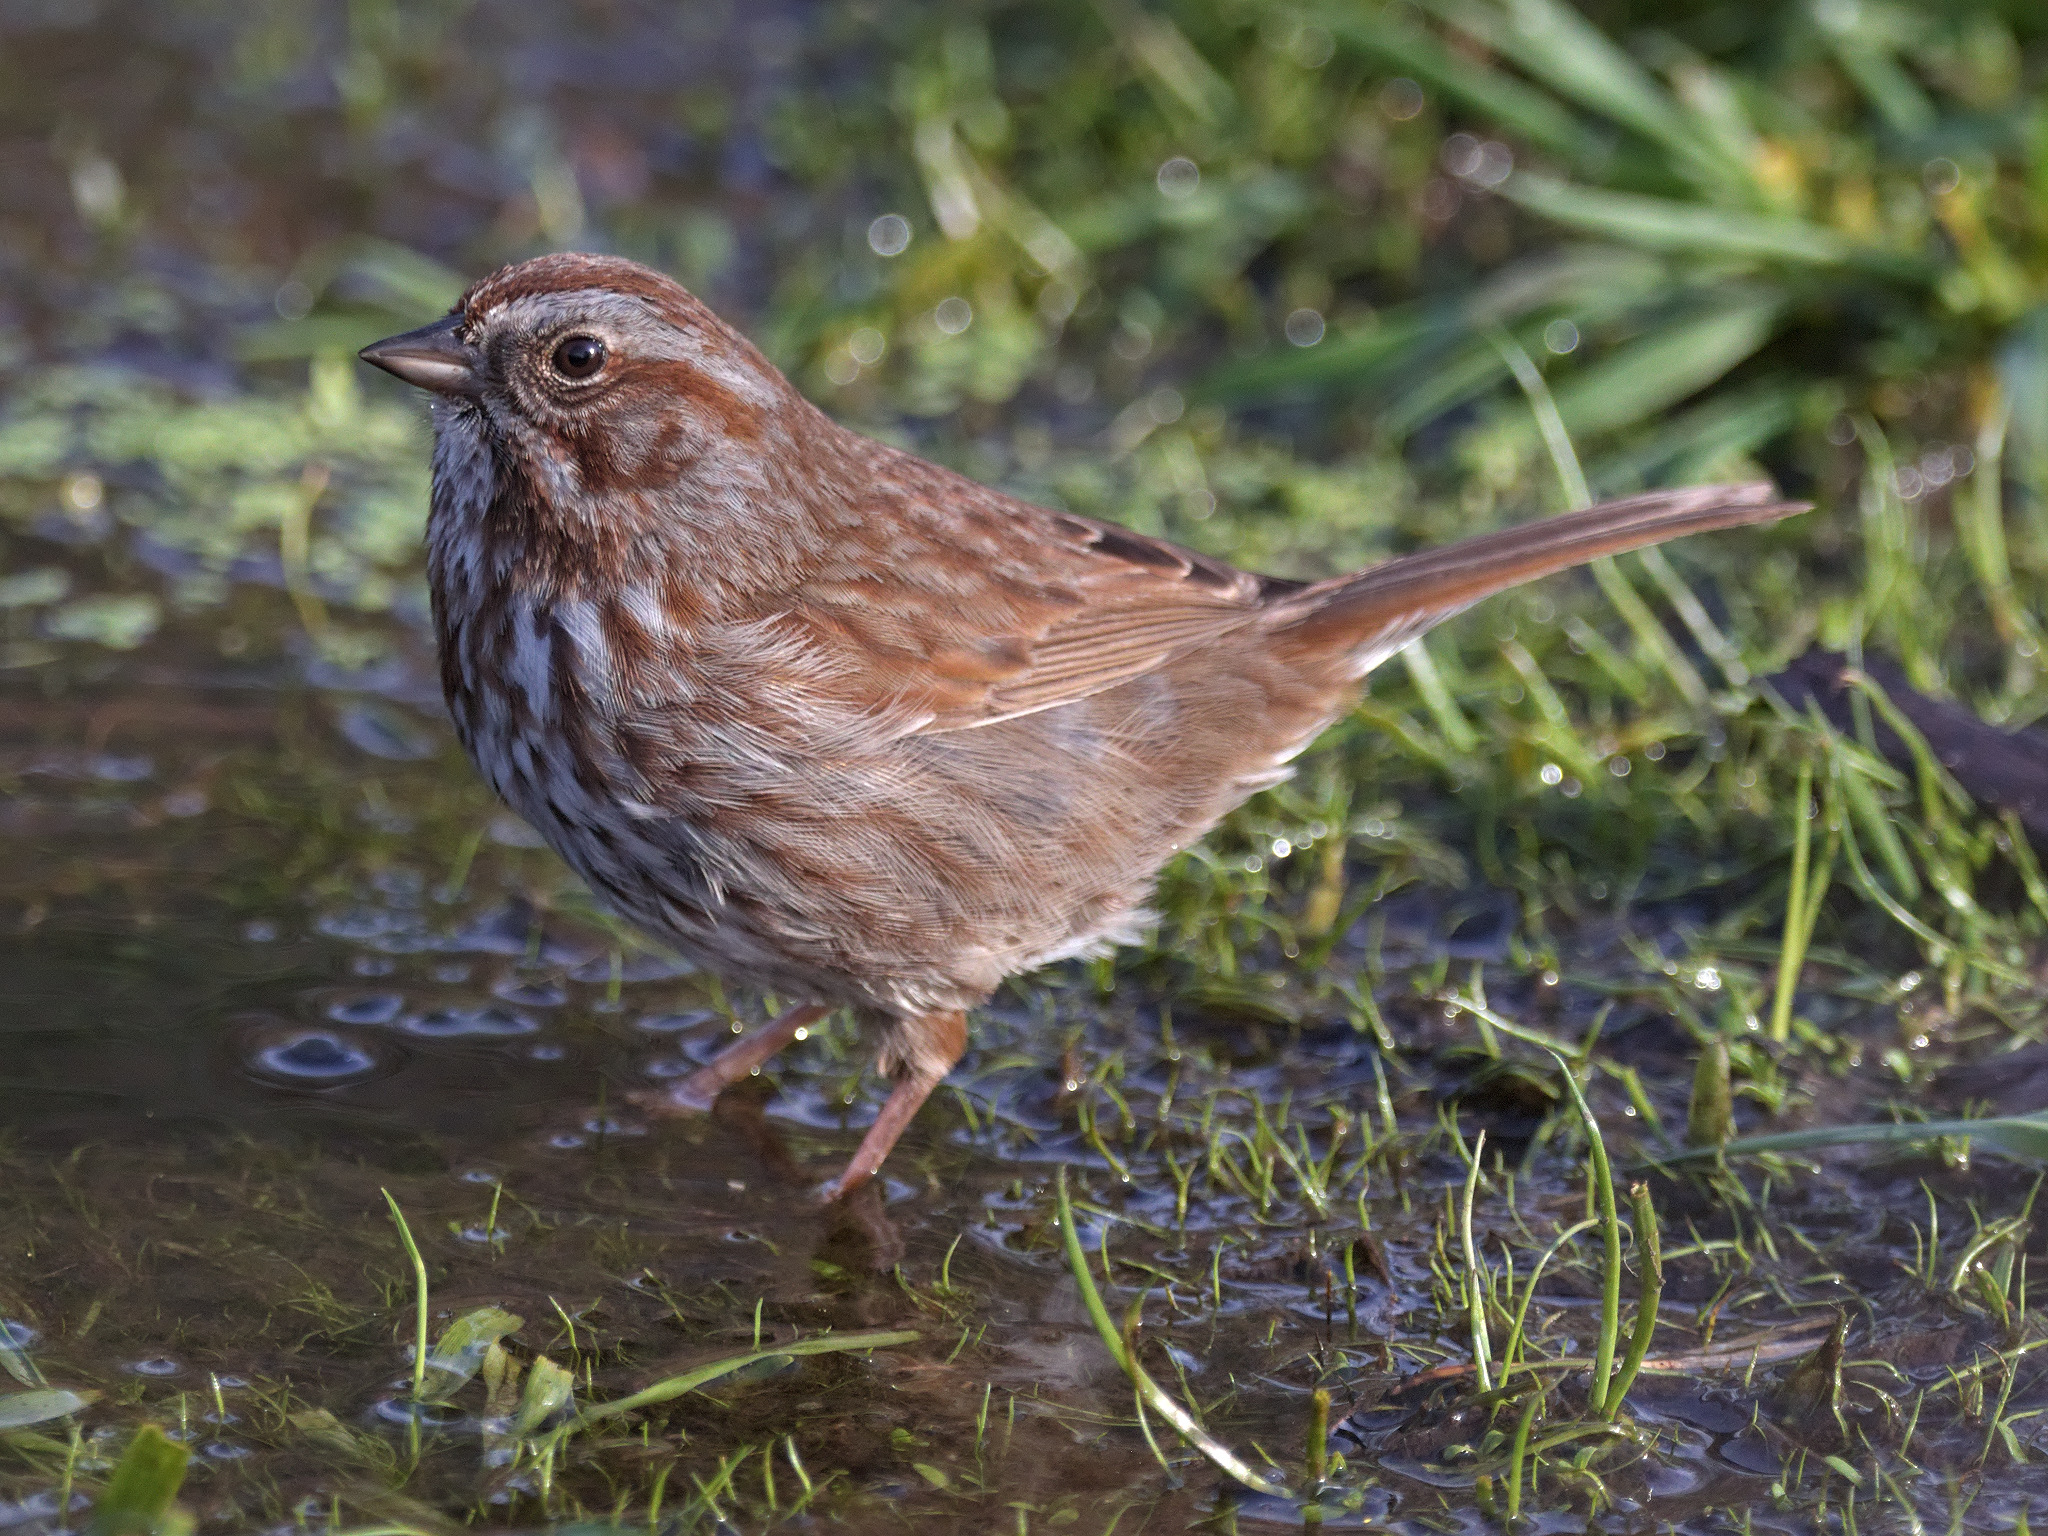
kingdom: Animalia
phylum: Chordata
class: Aves
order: Passeriformes
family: Passerellidae
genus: Melospiza
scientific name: Melospiza melodia
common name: Song sparrow
